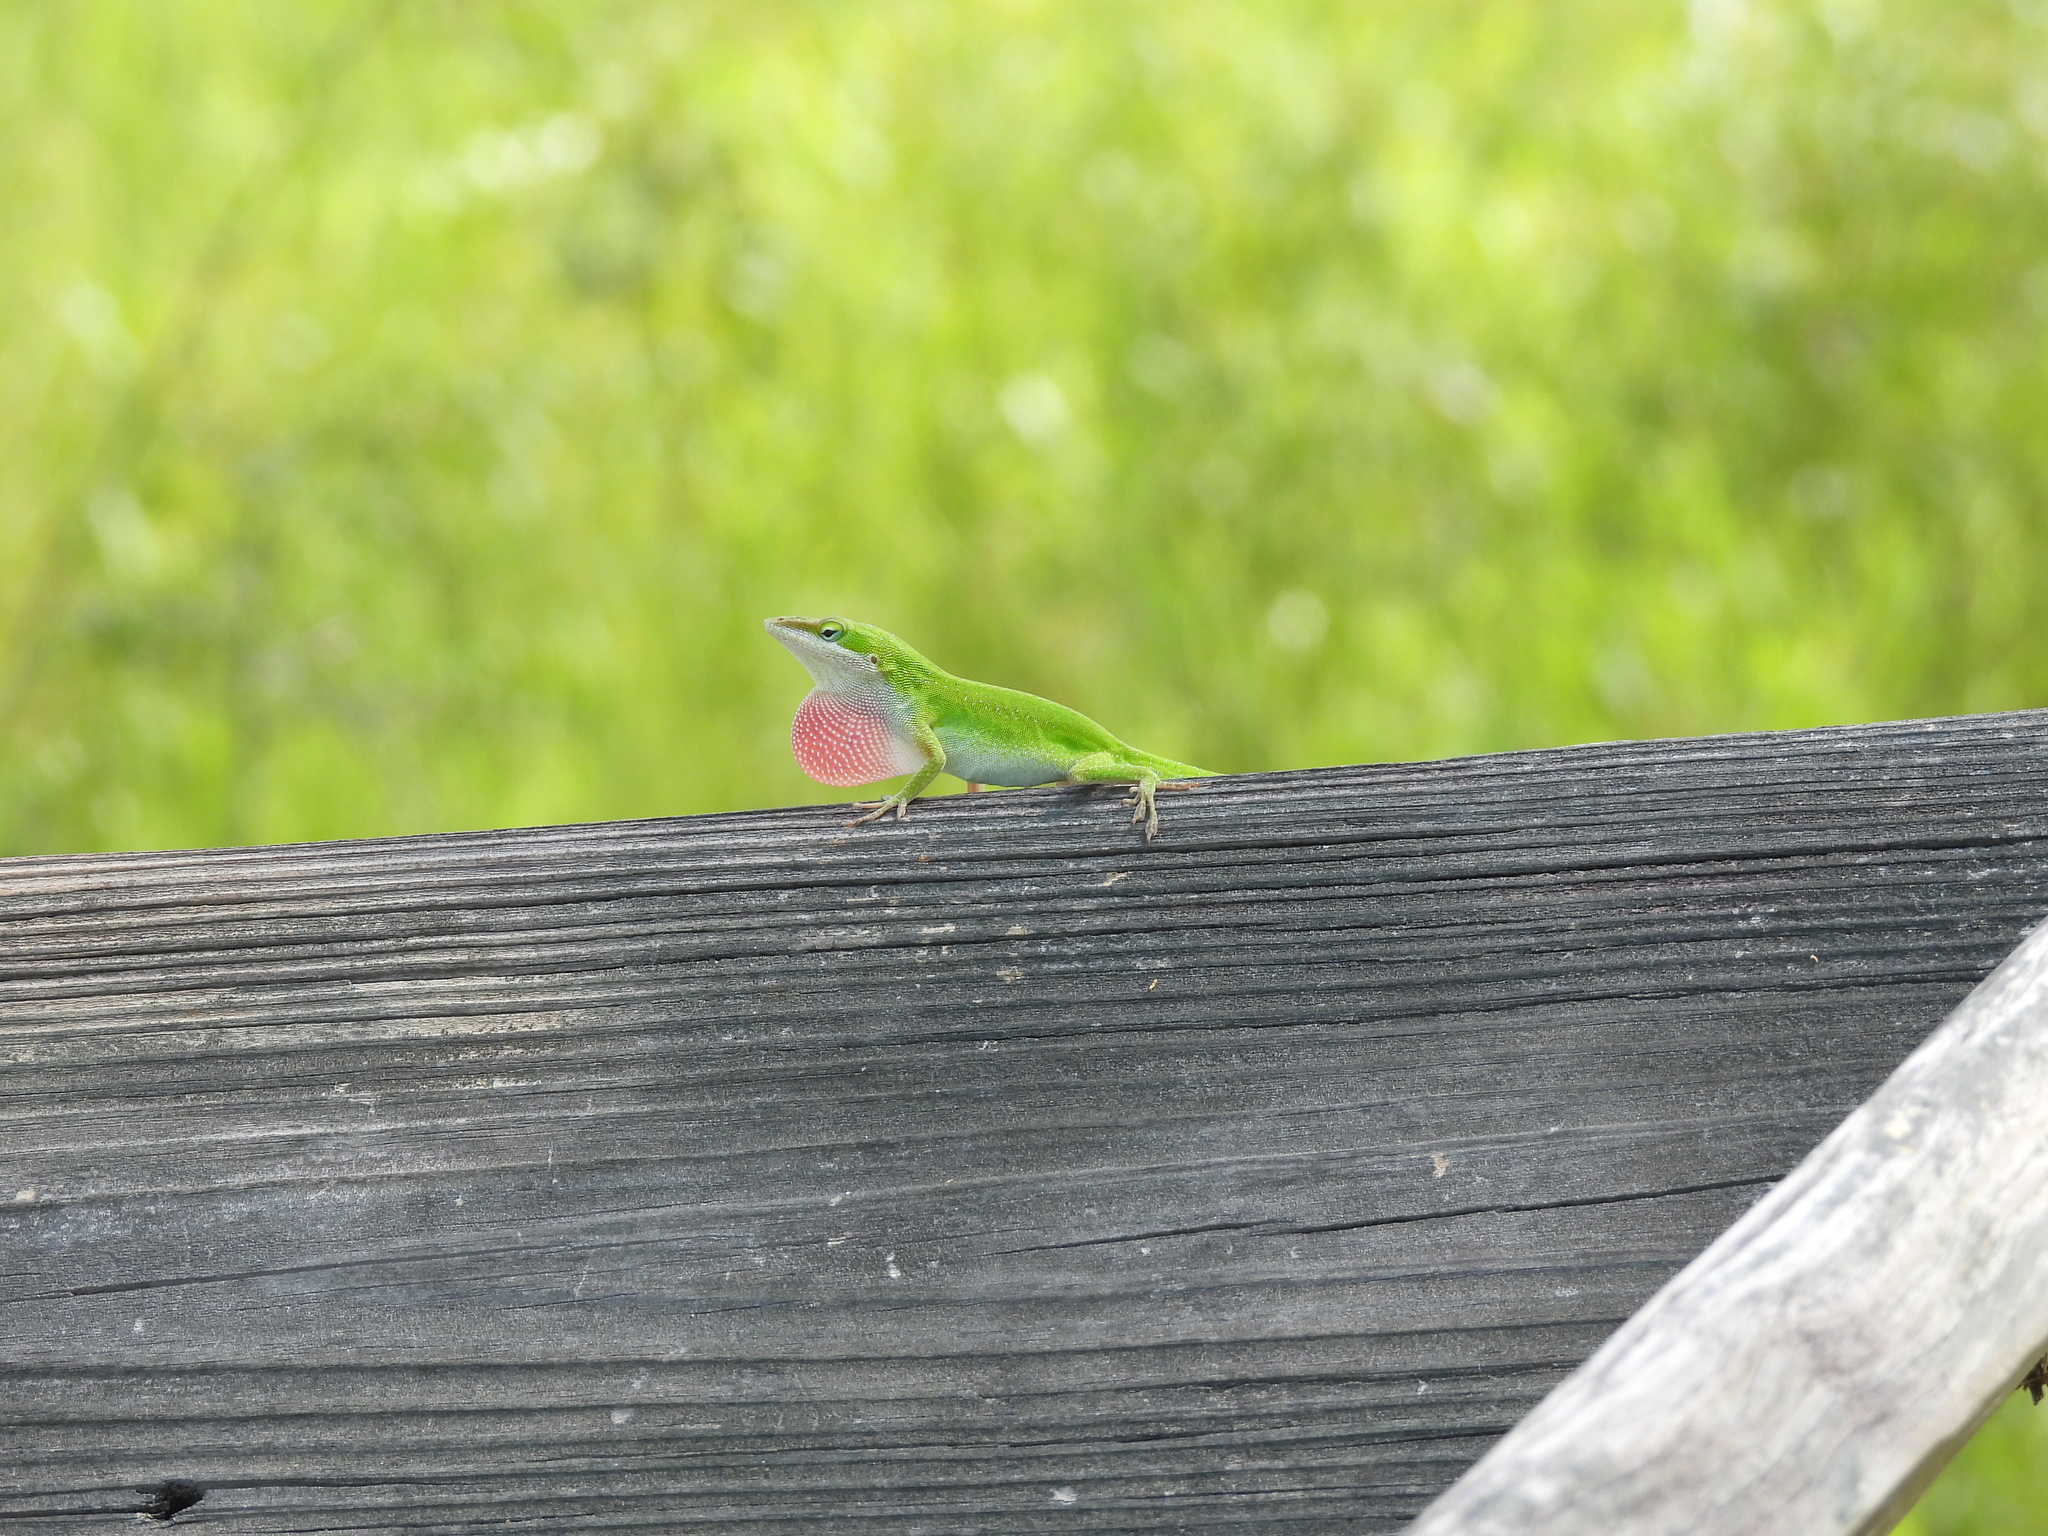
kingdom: Animalia
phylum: Chordata
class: Squamata
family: Dactyloidae
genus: Anolis
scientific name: Anolis carolinensis
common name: Green anole
